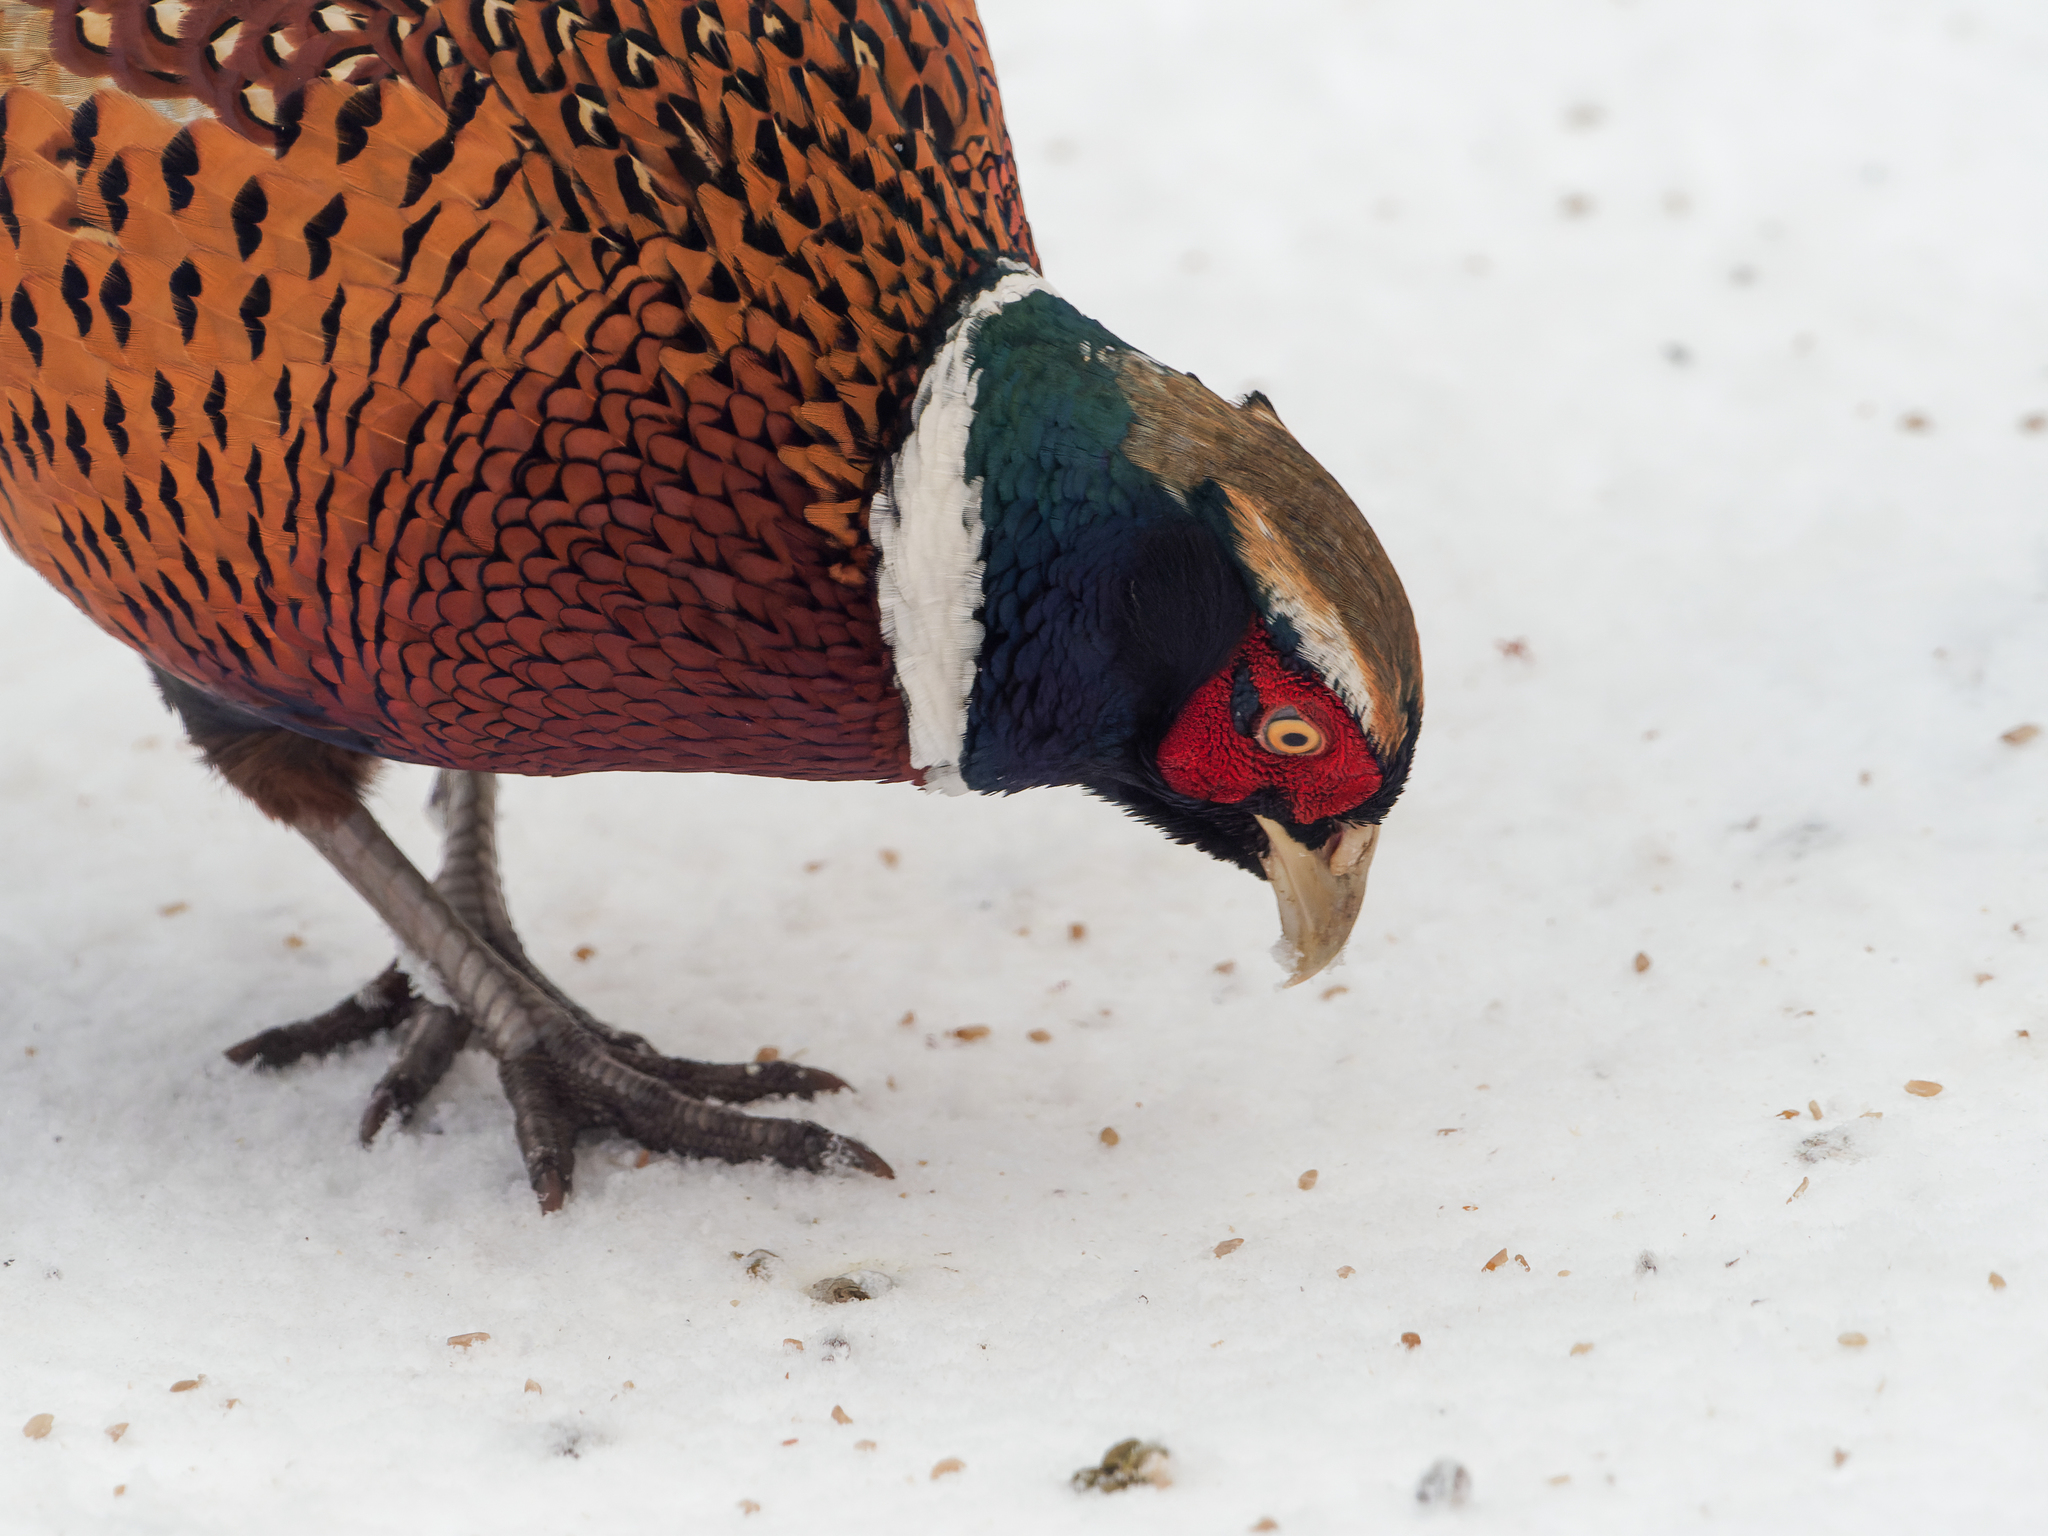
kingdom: Animalia
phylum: Chordata
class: Aves
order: Galliformes
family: Phasianidae
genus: Phasianus
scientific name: Phasianus colchicus
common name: Common pheasant
